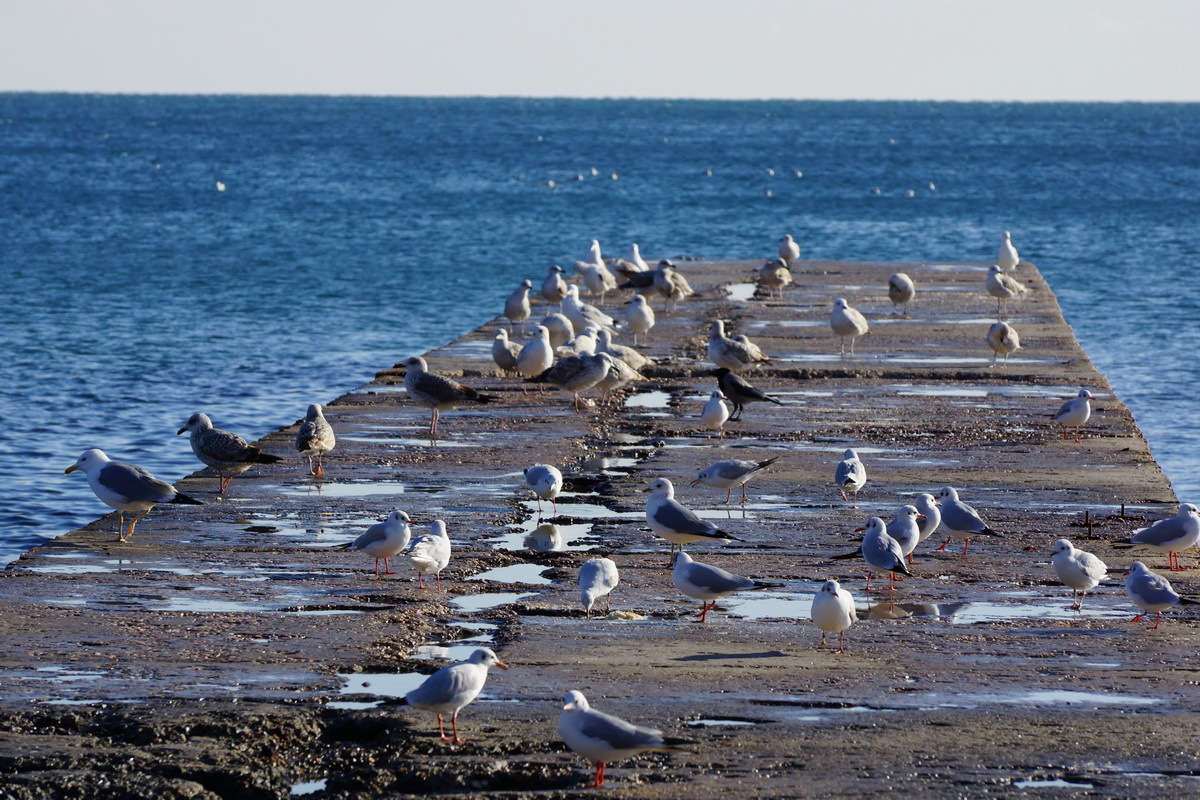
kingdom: Animalia
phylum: Chordata
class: Aves
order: Charadriiformes
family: Laridae
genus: Chroicocephalus
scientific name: Chroicocephalus ridibundus
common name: Black-headed gull
